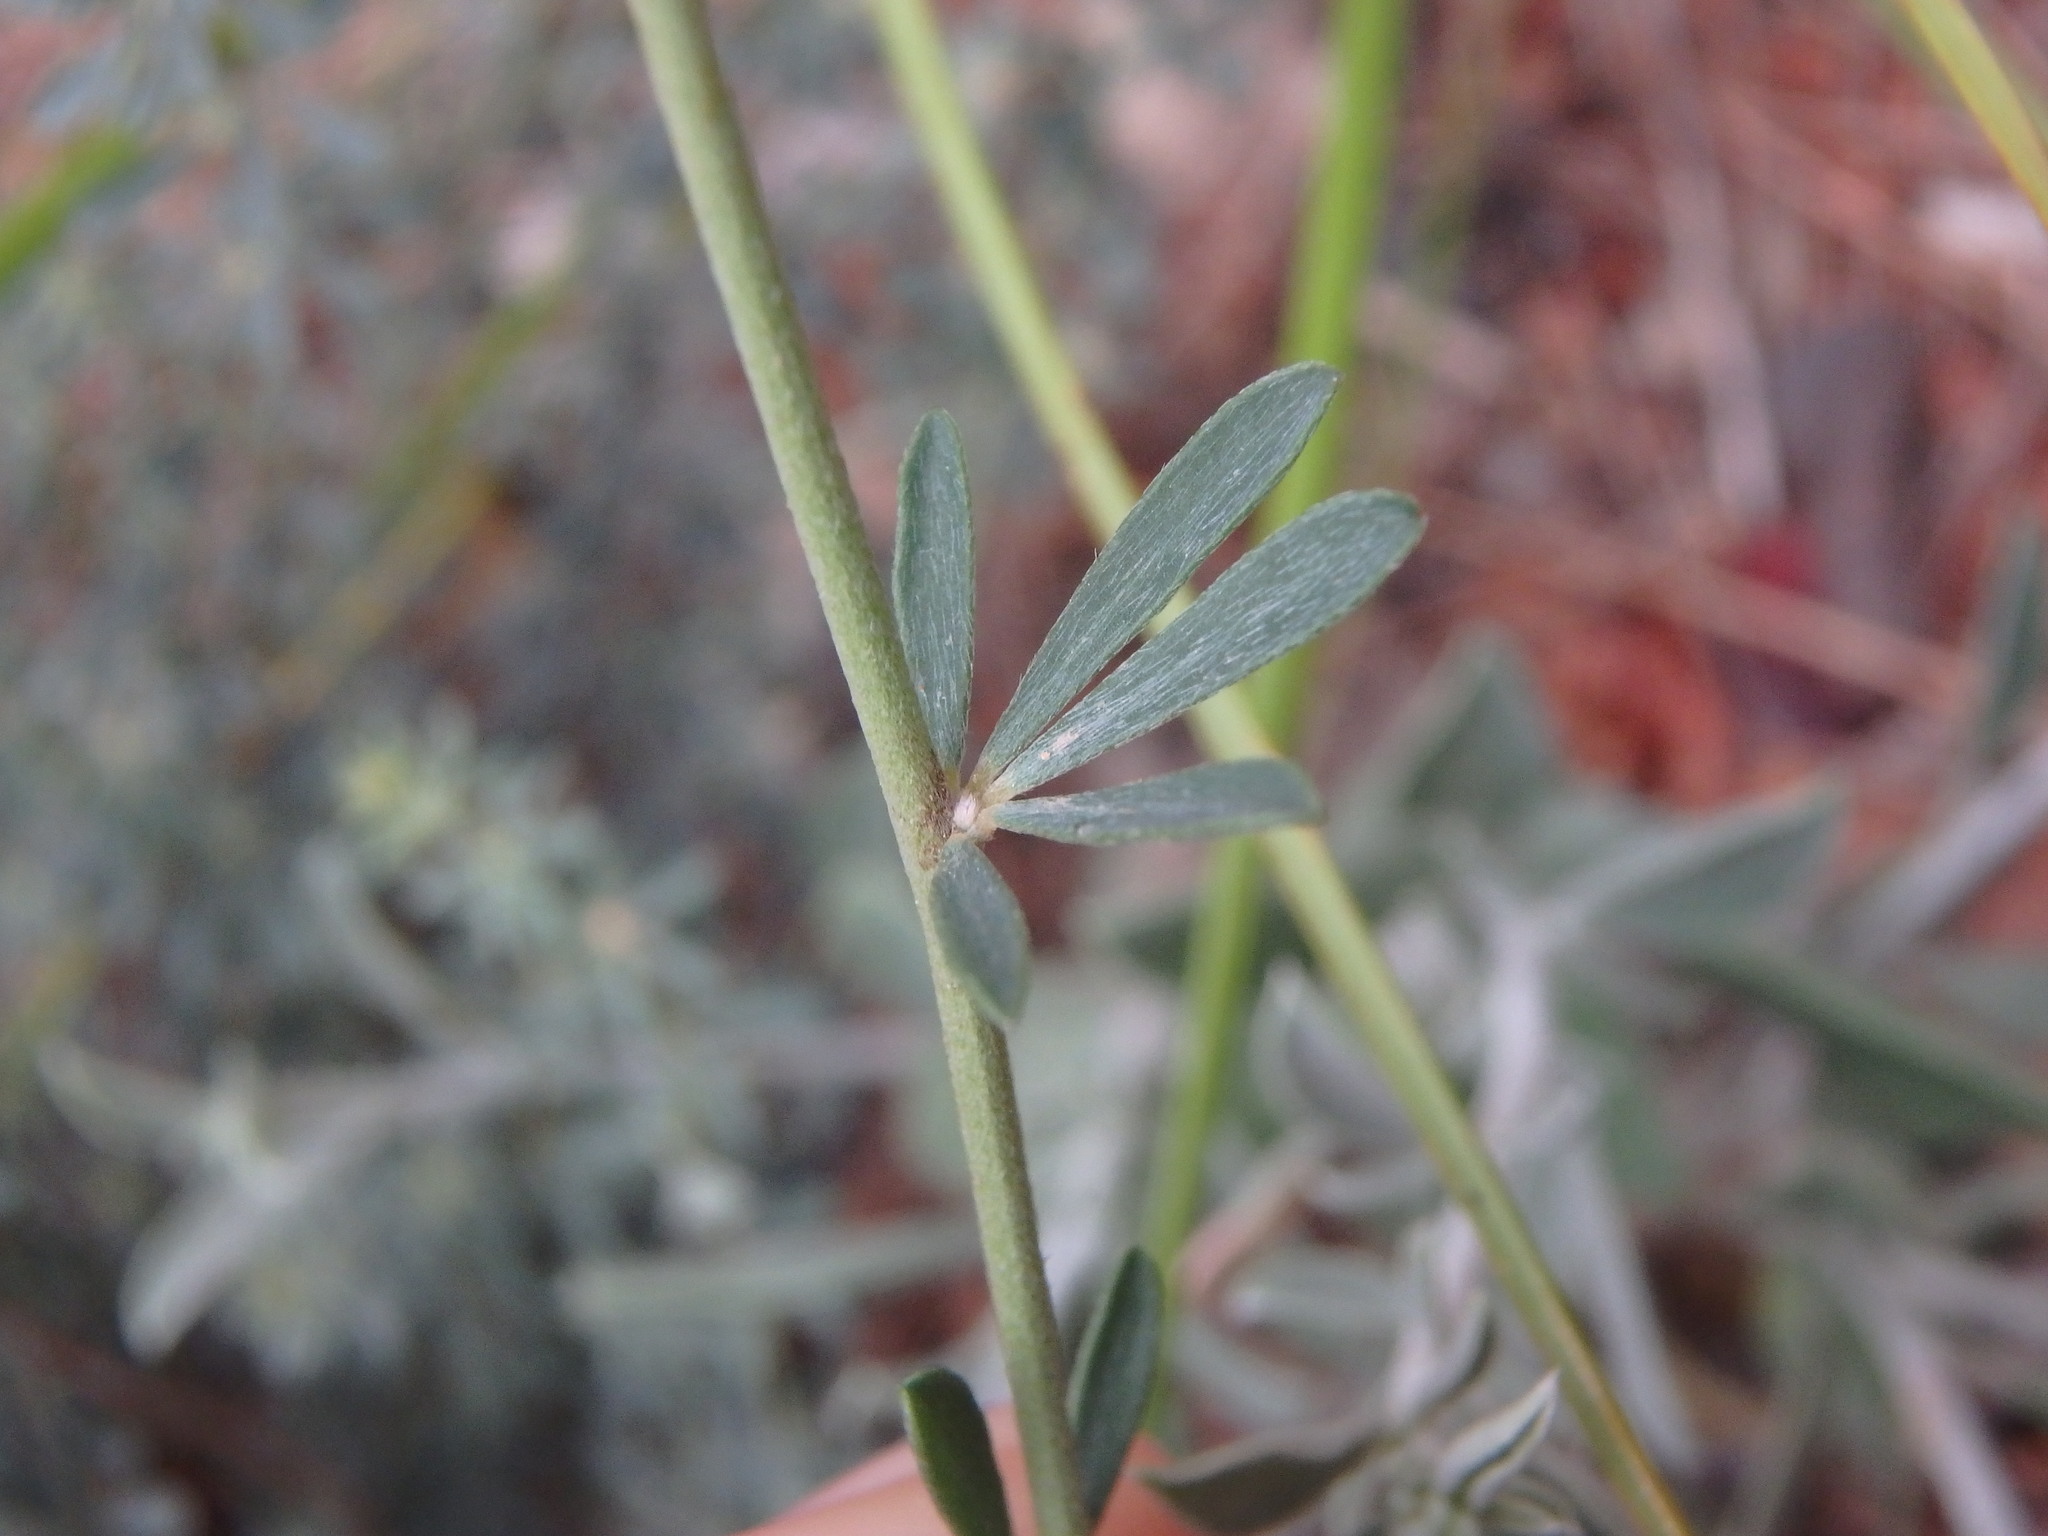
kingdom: Plantae
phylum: Tracheophyta
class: Magnoliopsida
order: Fabales
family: Fabaceae
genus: Lotus
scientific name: Lotus dorycnium
